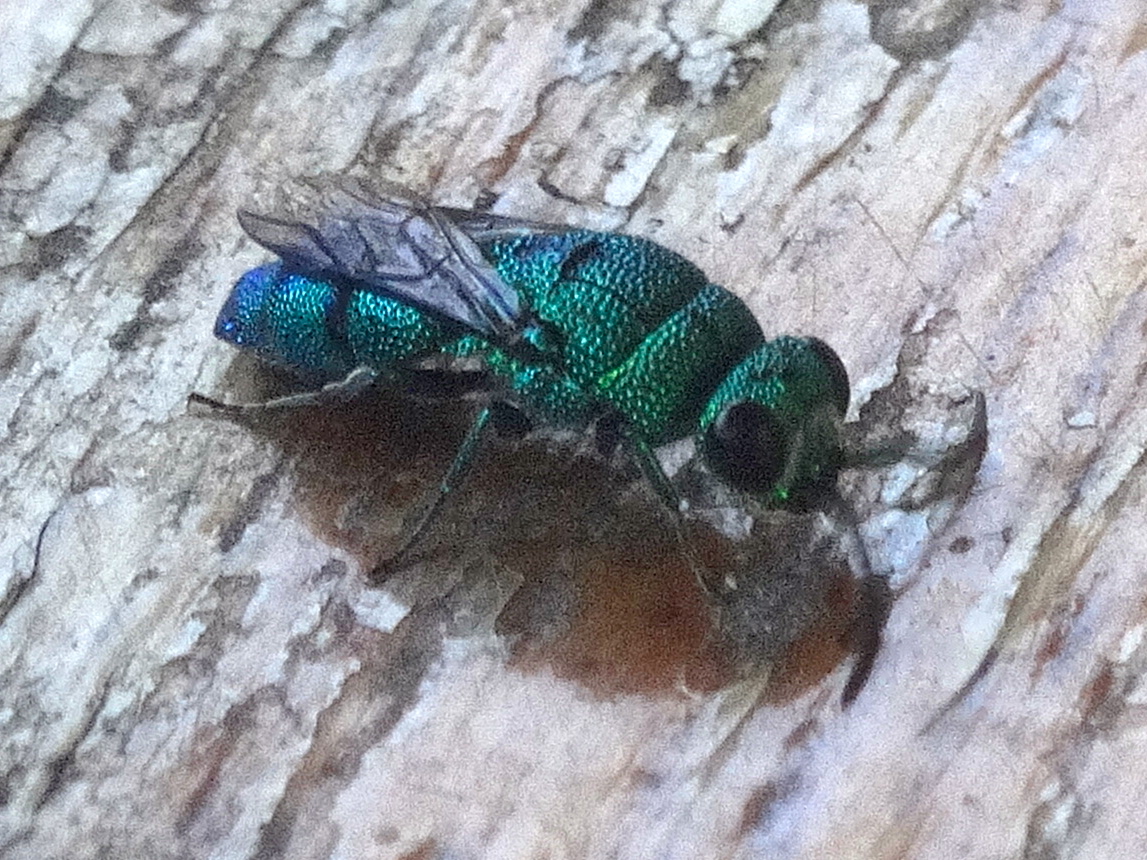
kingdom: Animalia
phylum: Arthropoda
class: Insecta
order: Hymenoptera
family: Chrysididae
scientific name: Chrysididae
